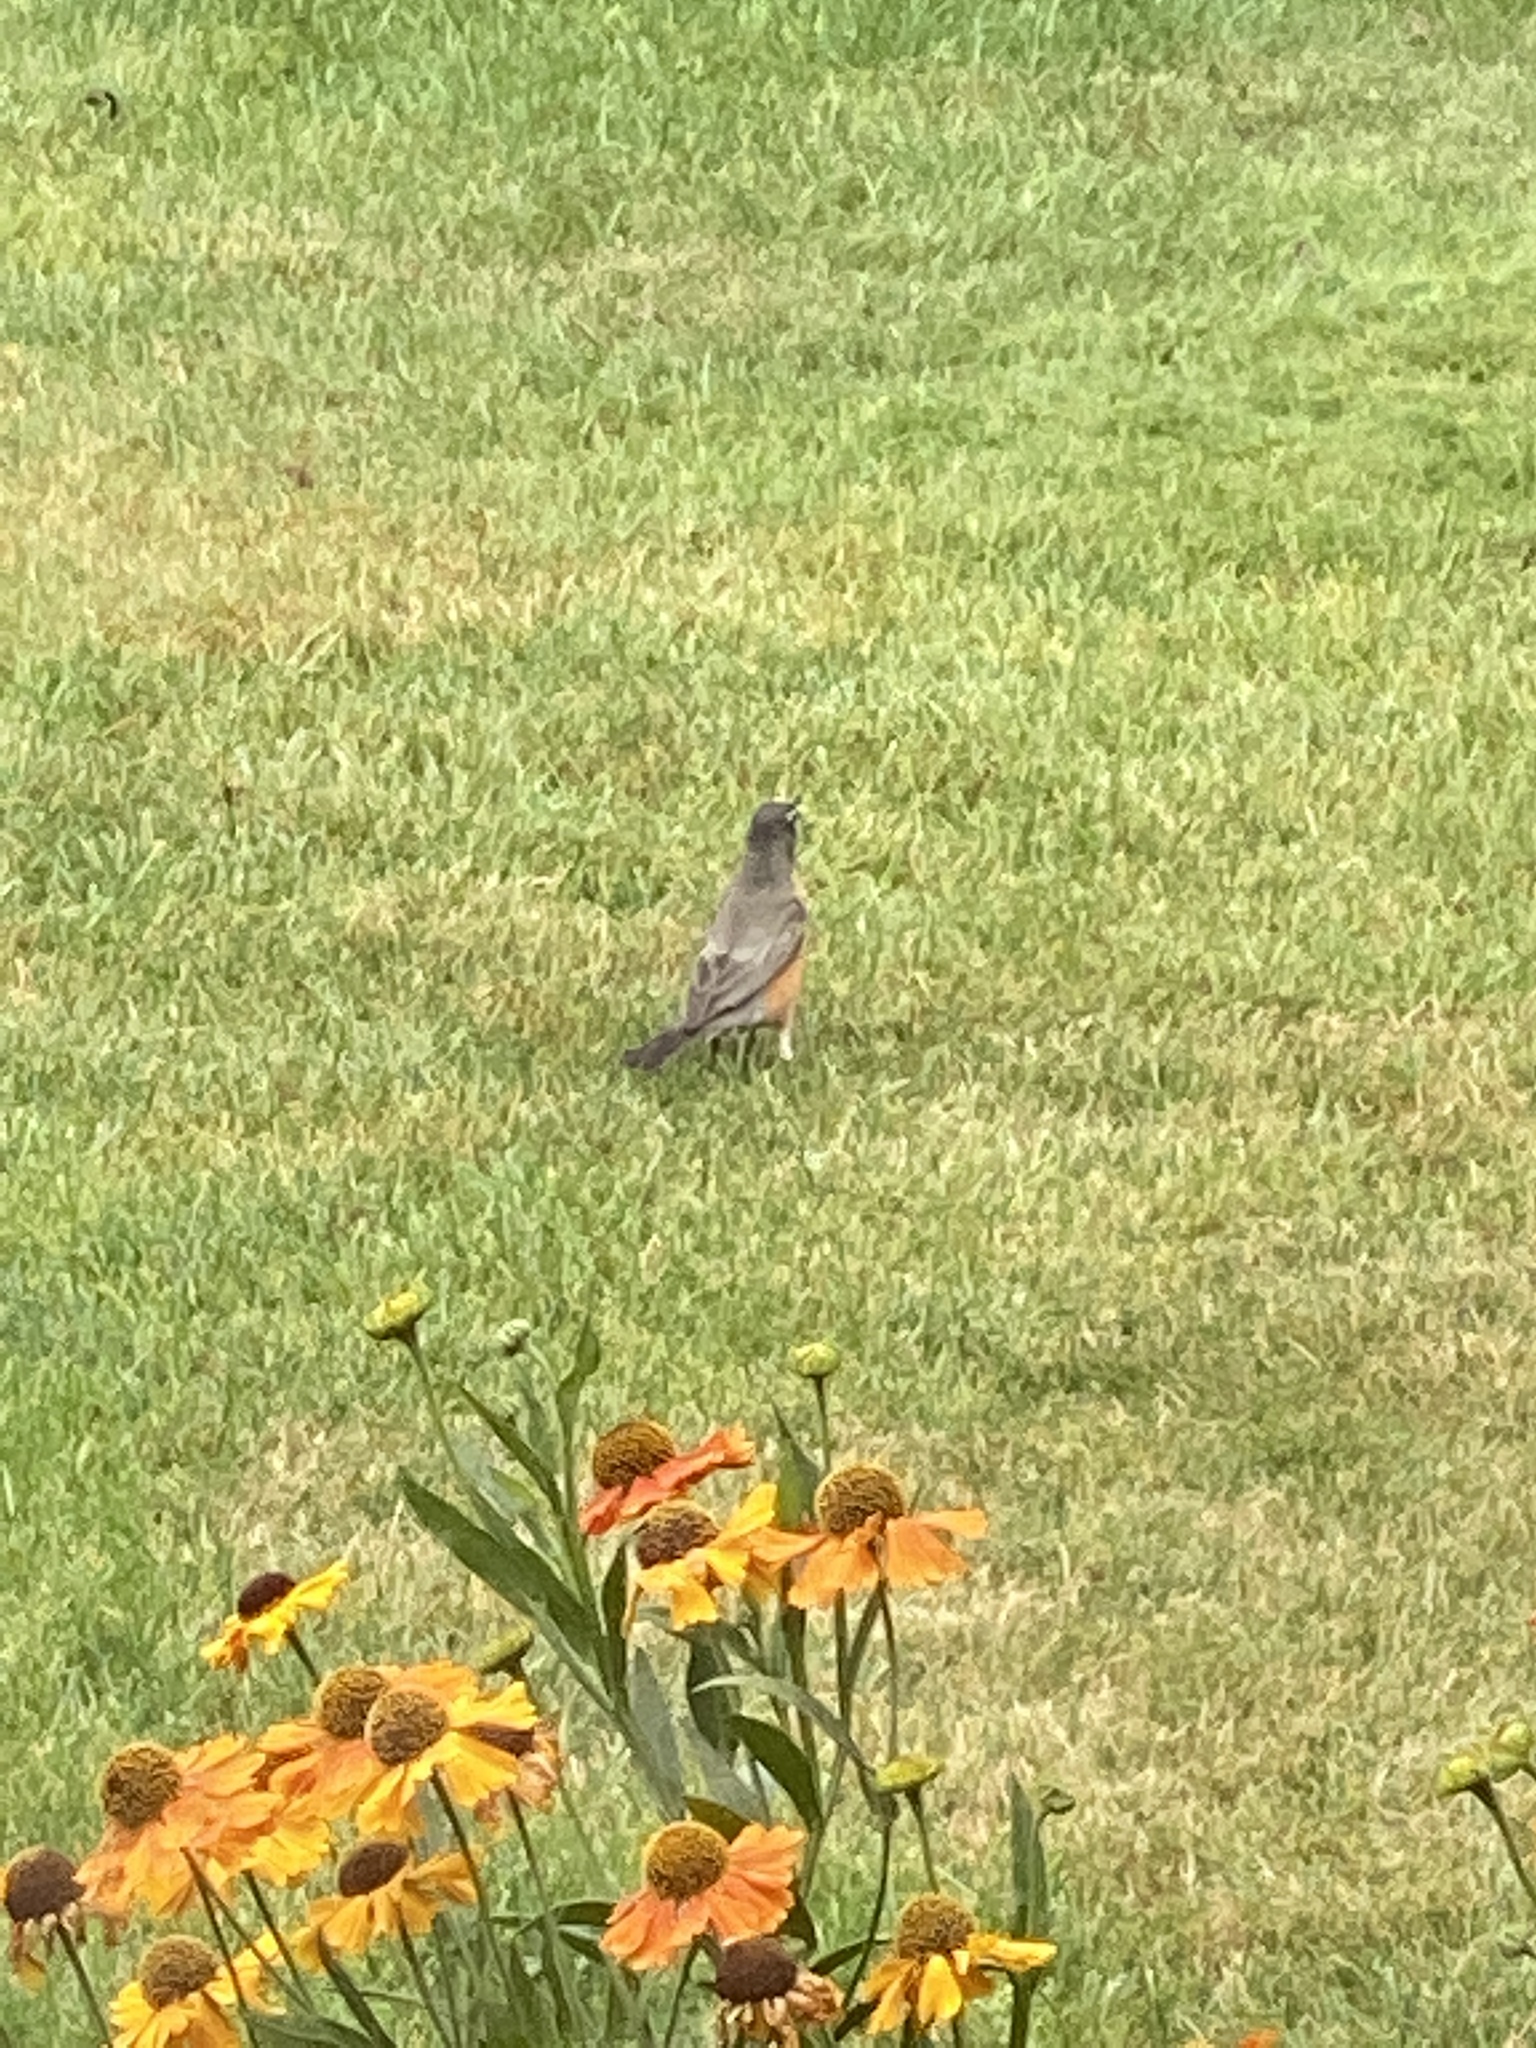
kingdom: Animalia
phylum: Chordata
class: Aves
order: Passeriformes
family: Turdidae
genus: Turdus
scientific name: Turdus migratorius
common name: American robin
